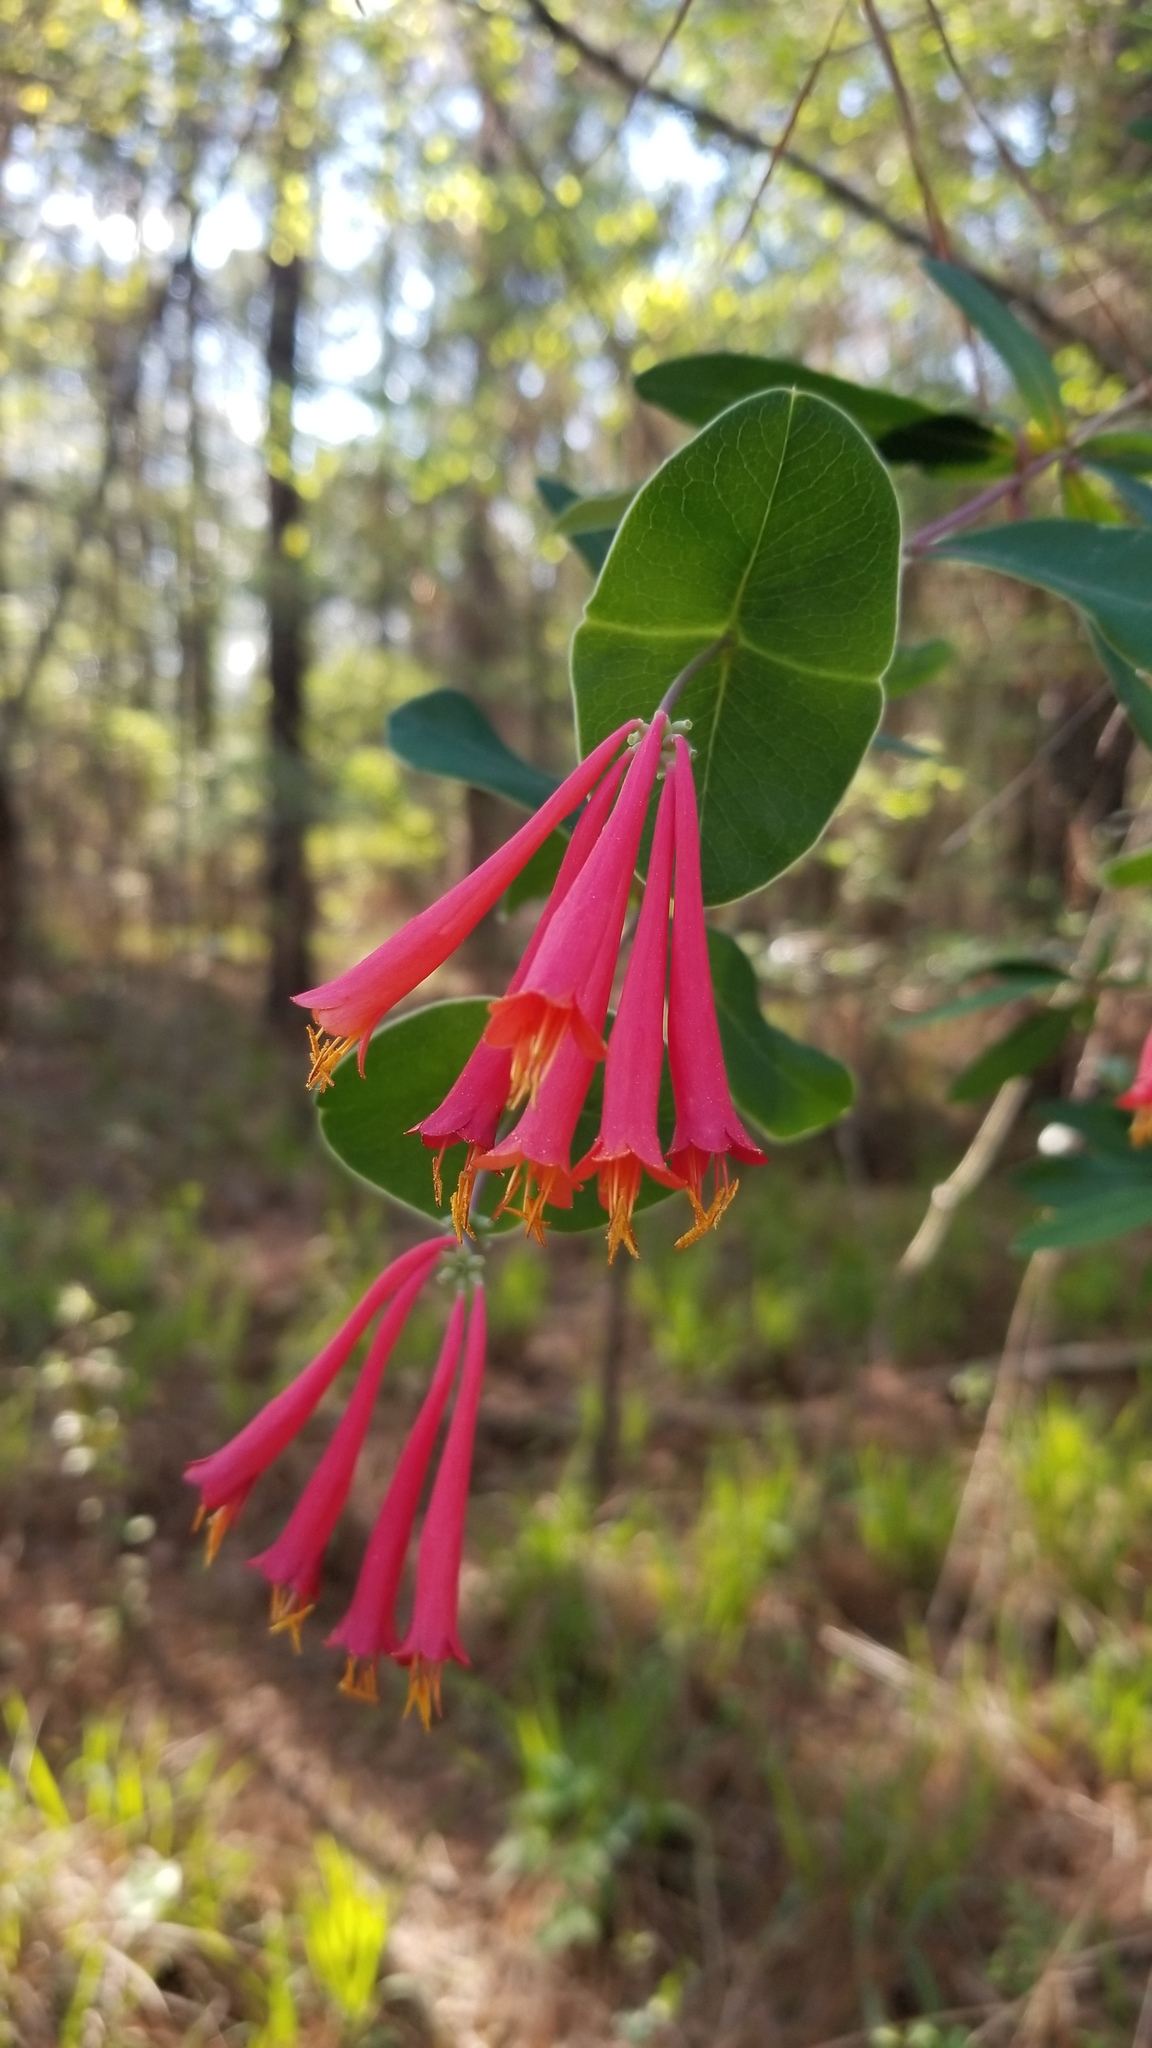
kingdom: Plantae
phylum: Tracheophyta
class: Magnoliopsida
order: Dipsacales
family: Caprifoliaceae
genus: Lonicera
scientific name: Lonicera sempervirens
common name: Coral honeysuckle
